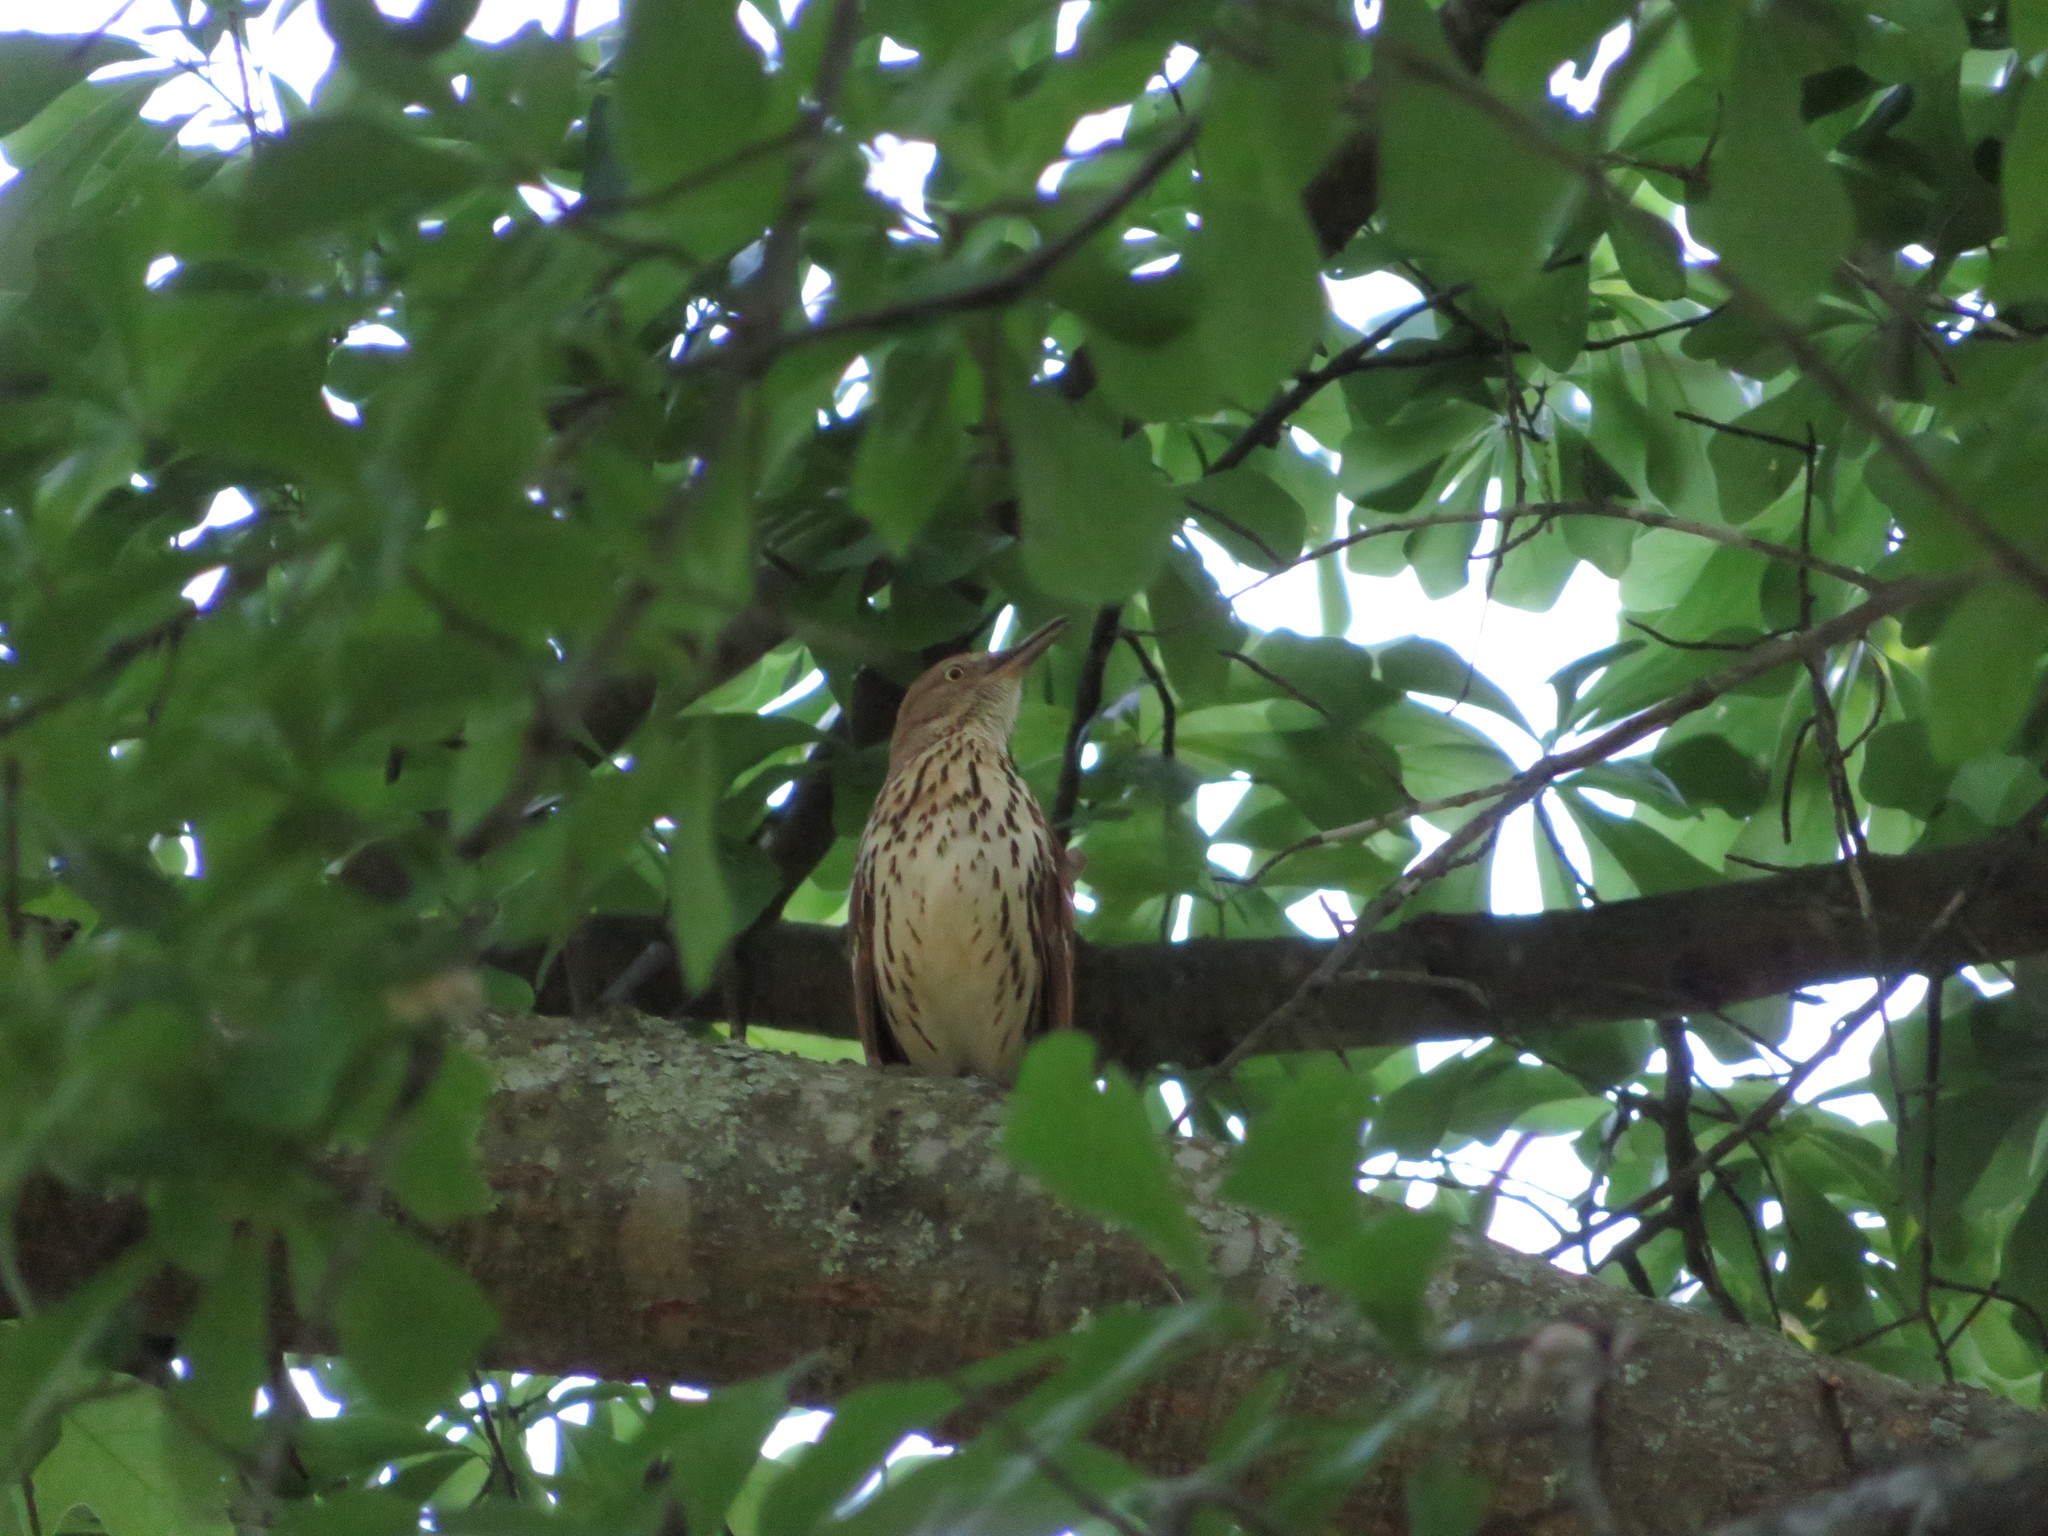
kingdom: Animalia
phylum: Chordata
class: Aves
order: Passeriformes
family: Mimidae
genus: Toxostoma
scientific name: Toxostoma rufum
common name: Brown thrasher
